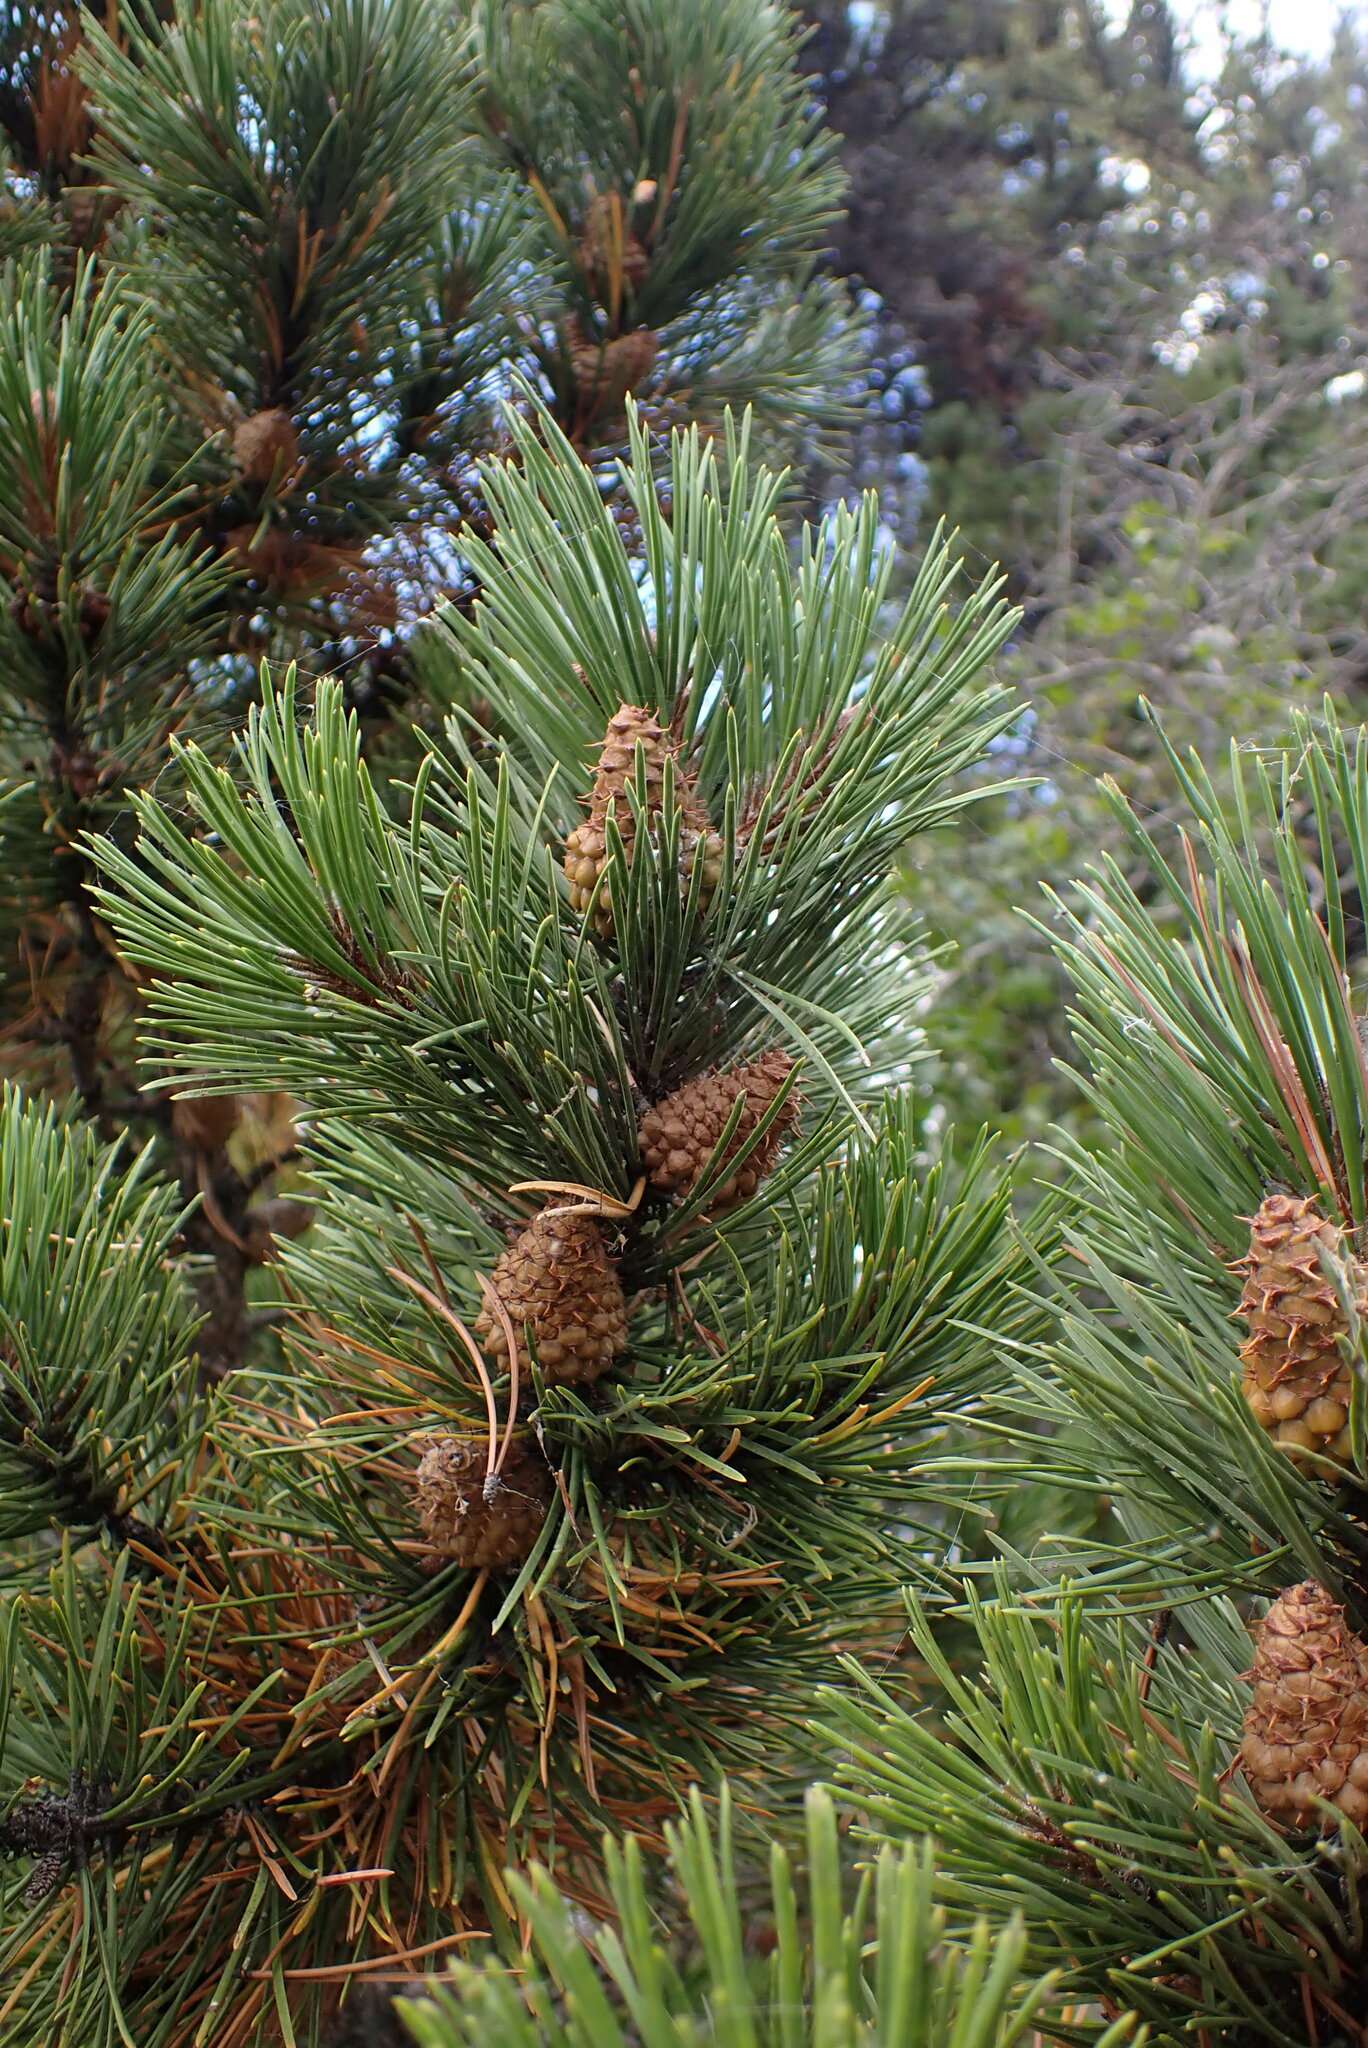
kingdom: Plantae
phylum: Tracheophyta
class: Pinopsida
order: Pinales
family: Pinaceae
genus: Pinus
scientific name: Pinus contorta
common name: Lodgepole pine
